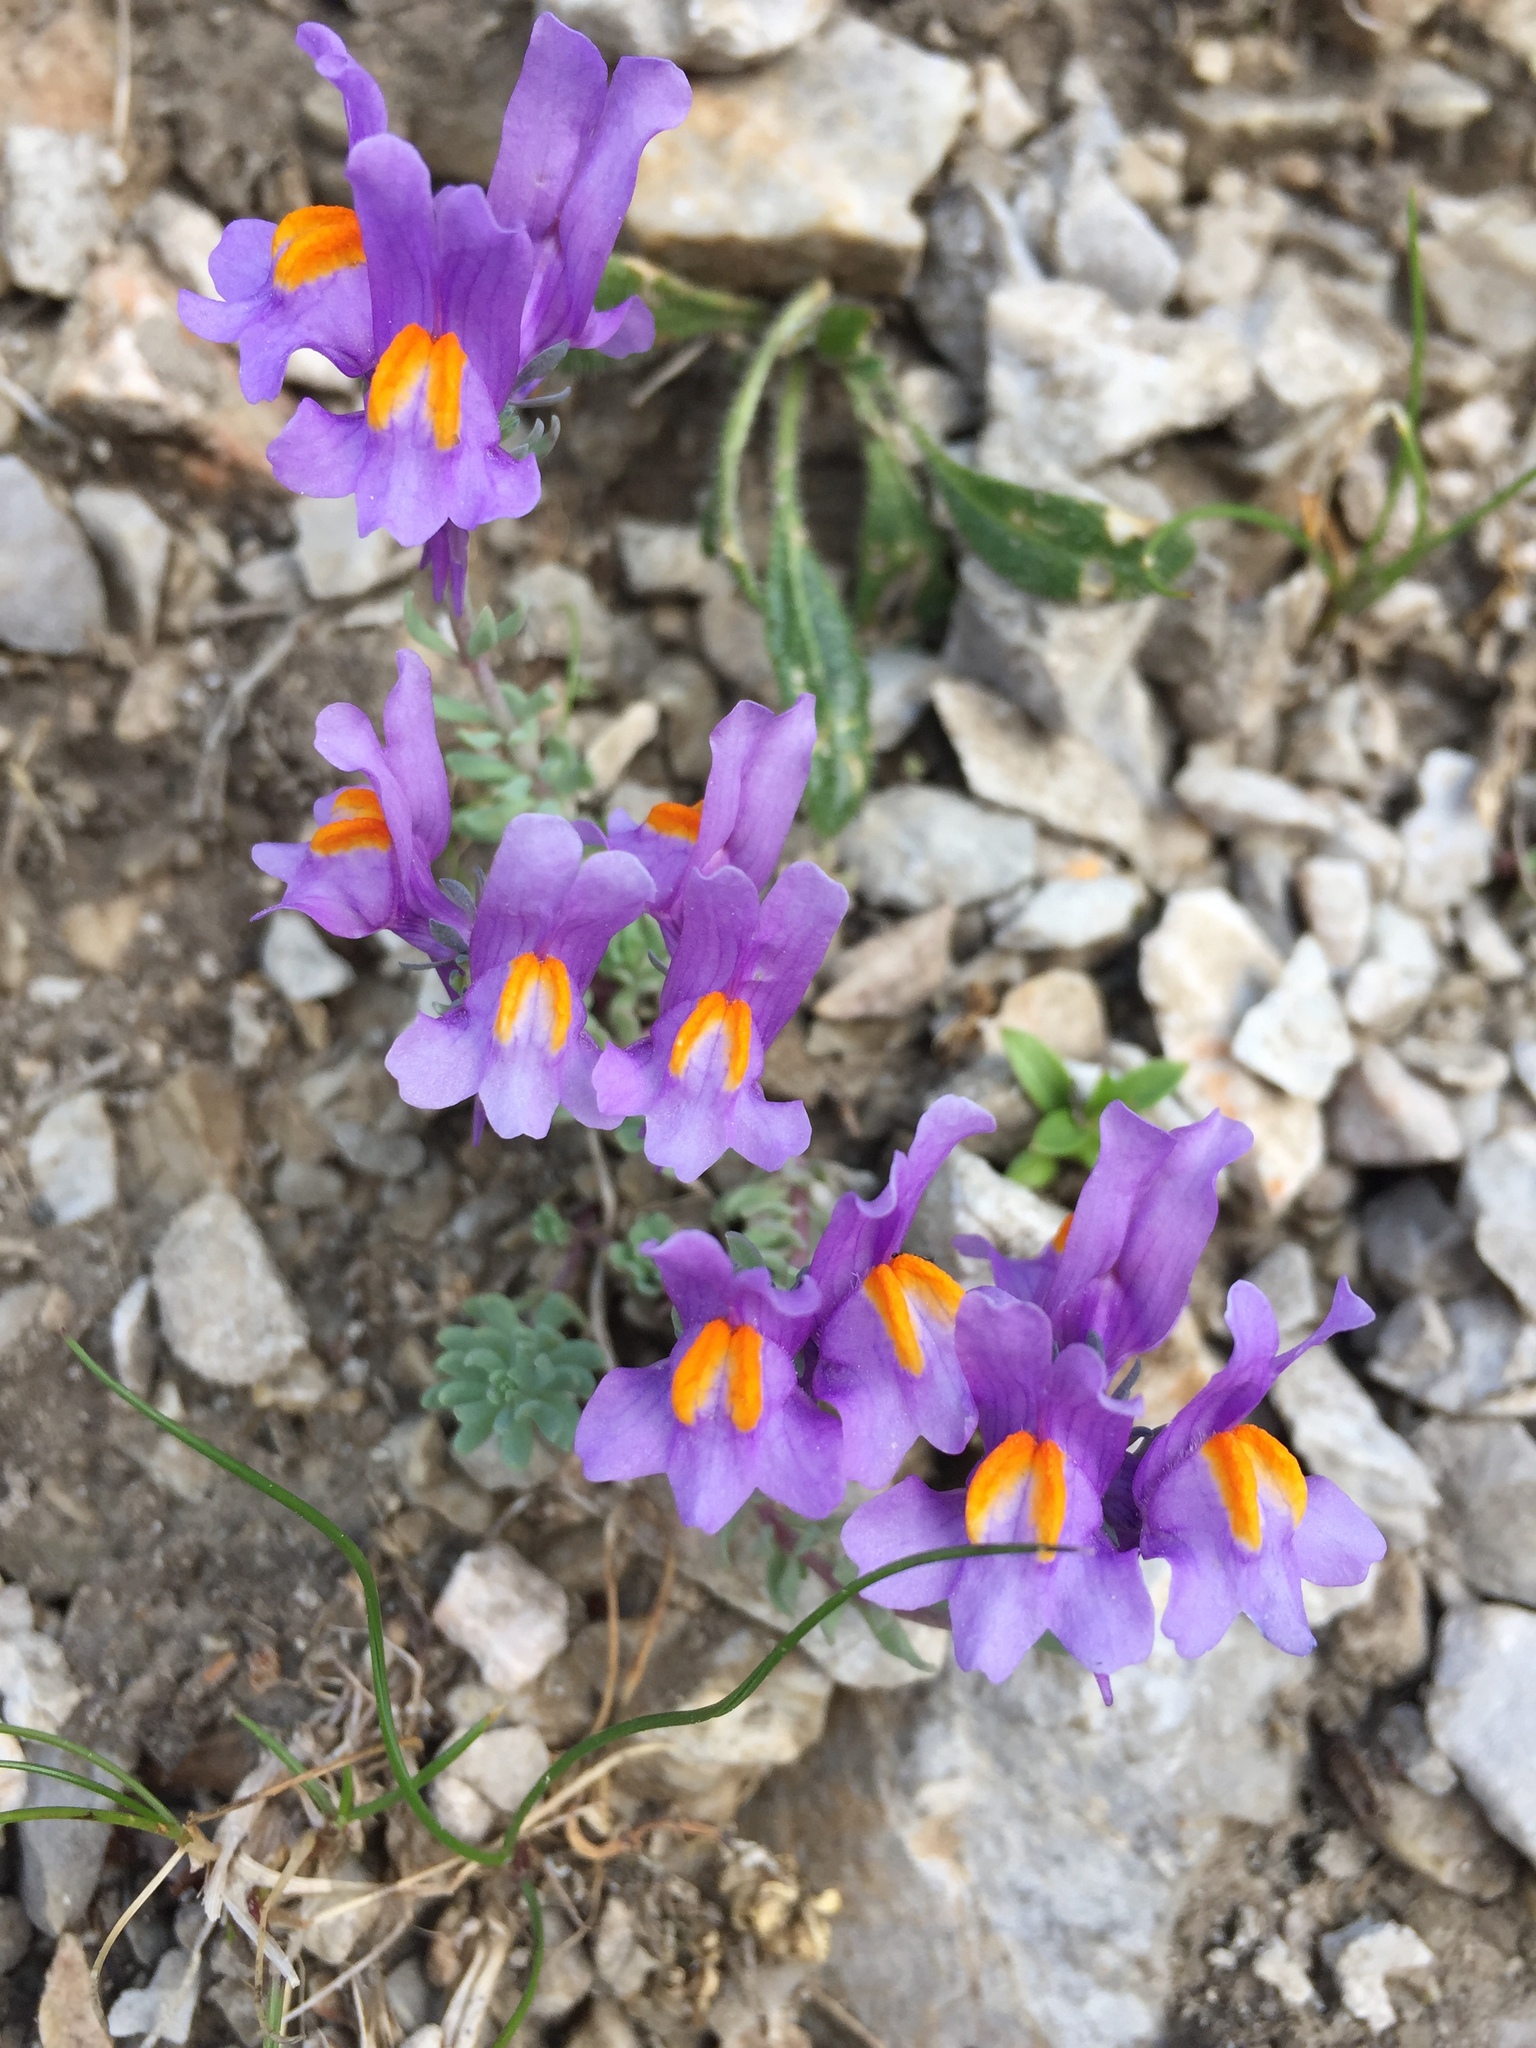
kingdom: Plantae
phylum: Tracheophyta
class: Magnoliopsida
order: Lamiales
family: Plantaginaceae
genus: Linaria
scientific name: Linaria alpina
